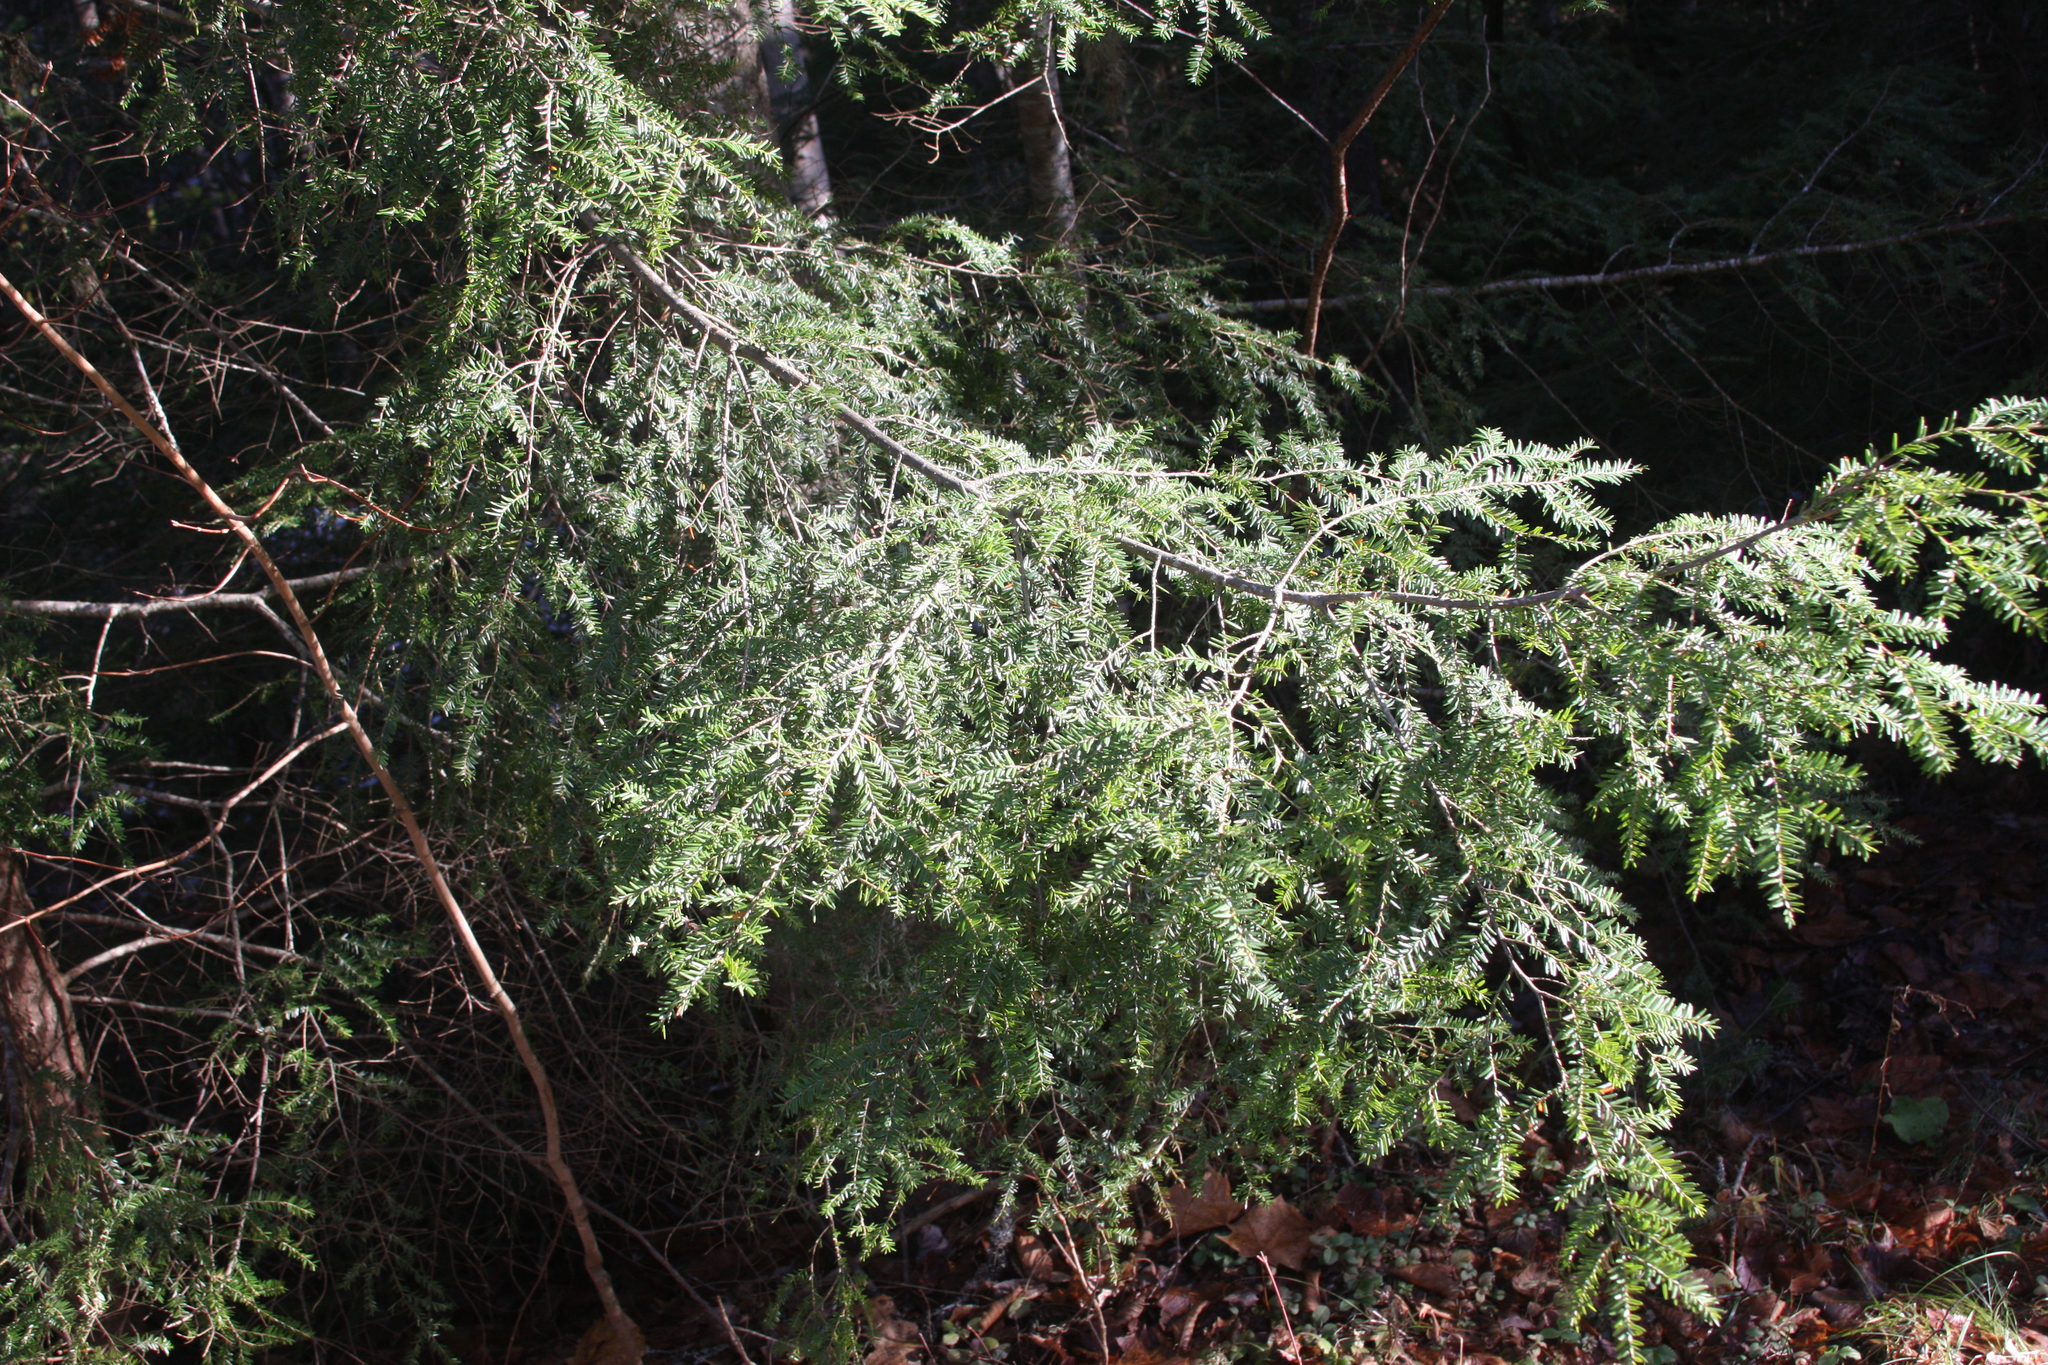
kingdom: Plantae
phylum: Tracheophyta
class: Pinopsida
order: Pinales
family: Pinaceae
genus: Tsuga
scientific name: Tsuga canadensis
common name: Eastern hemlock
